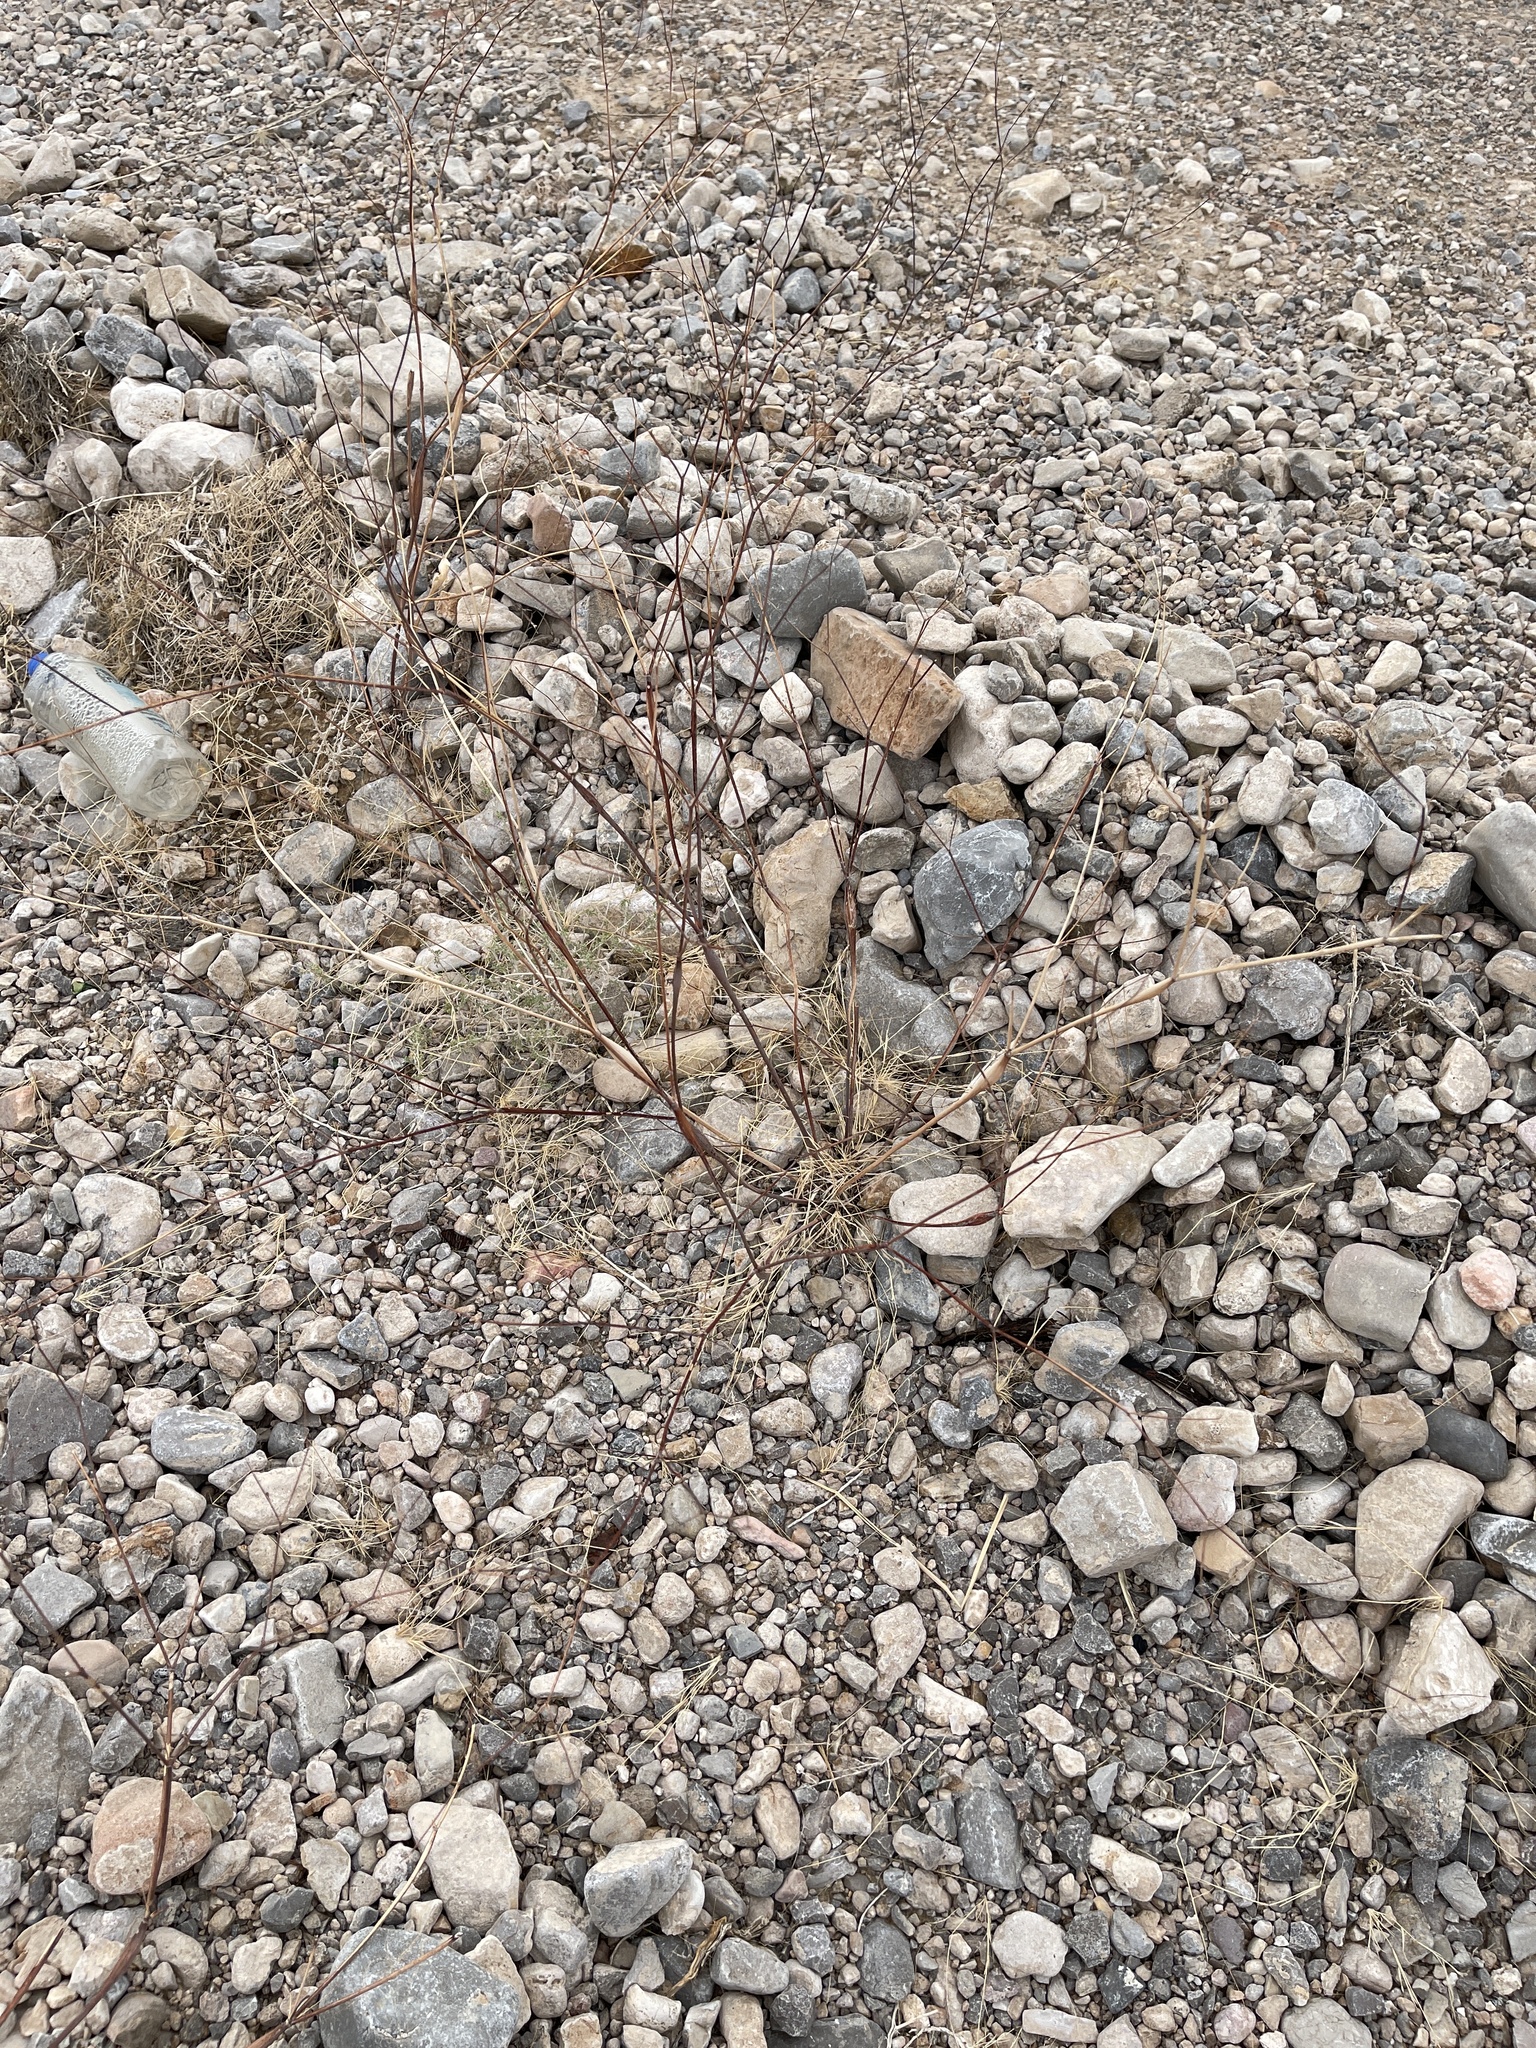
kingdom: Plantae
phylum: Tracheophyta
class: Magnoliopsida
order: Caryophyllales
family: Polygonaceae
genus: Eriogonum
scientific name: Eriogonum inflatum
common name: Desert trumpet
